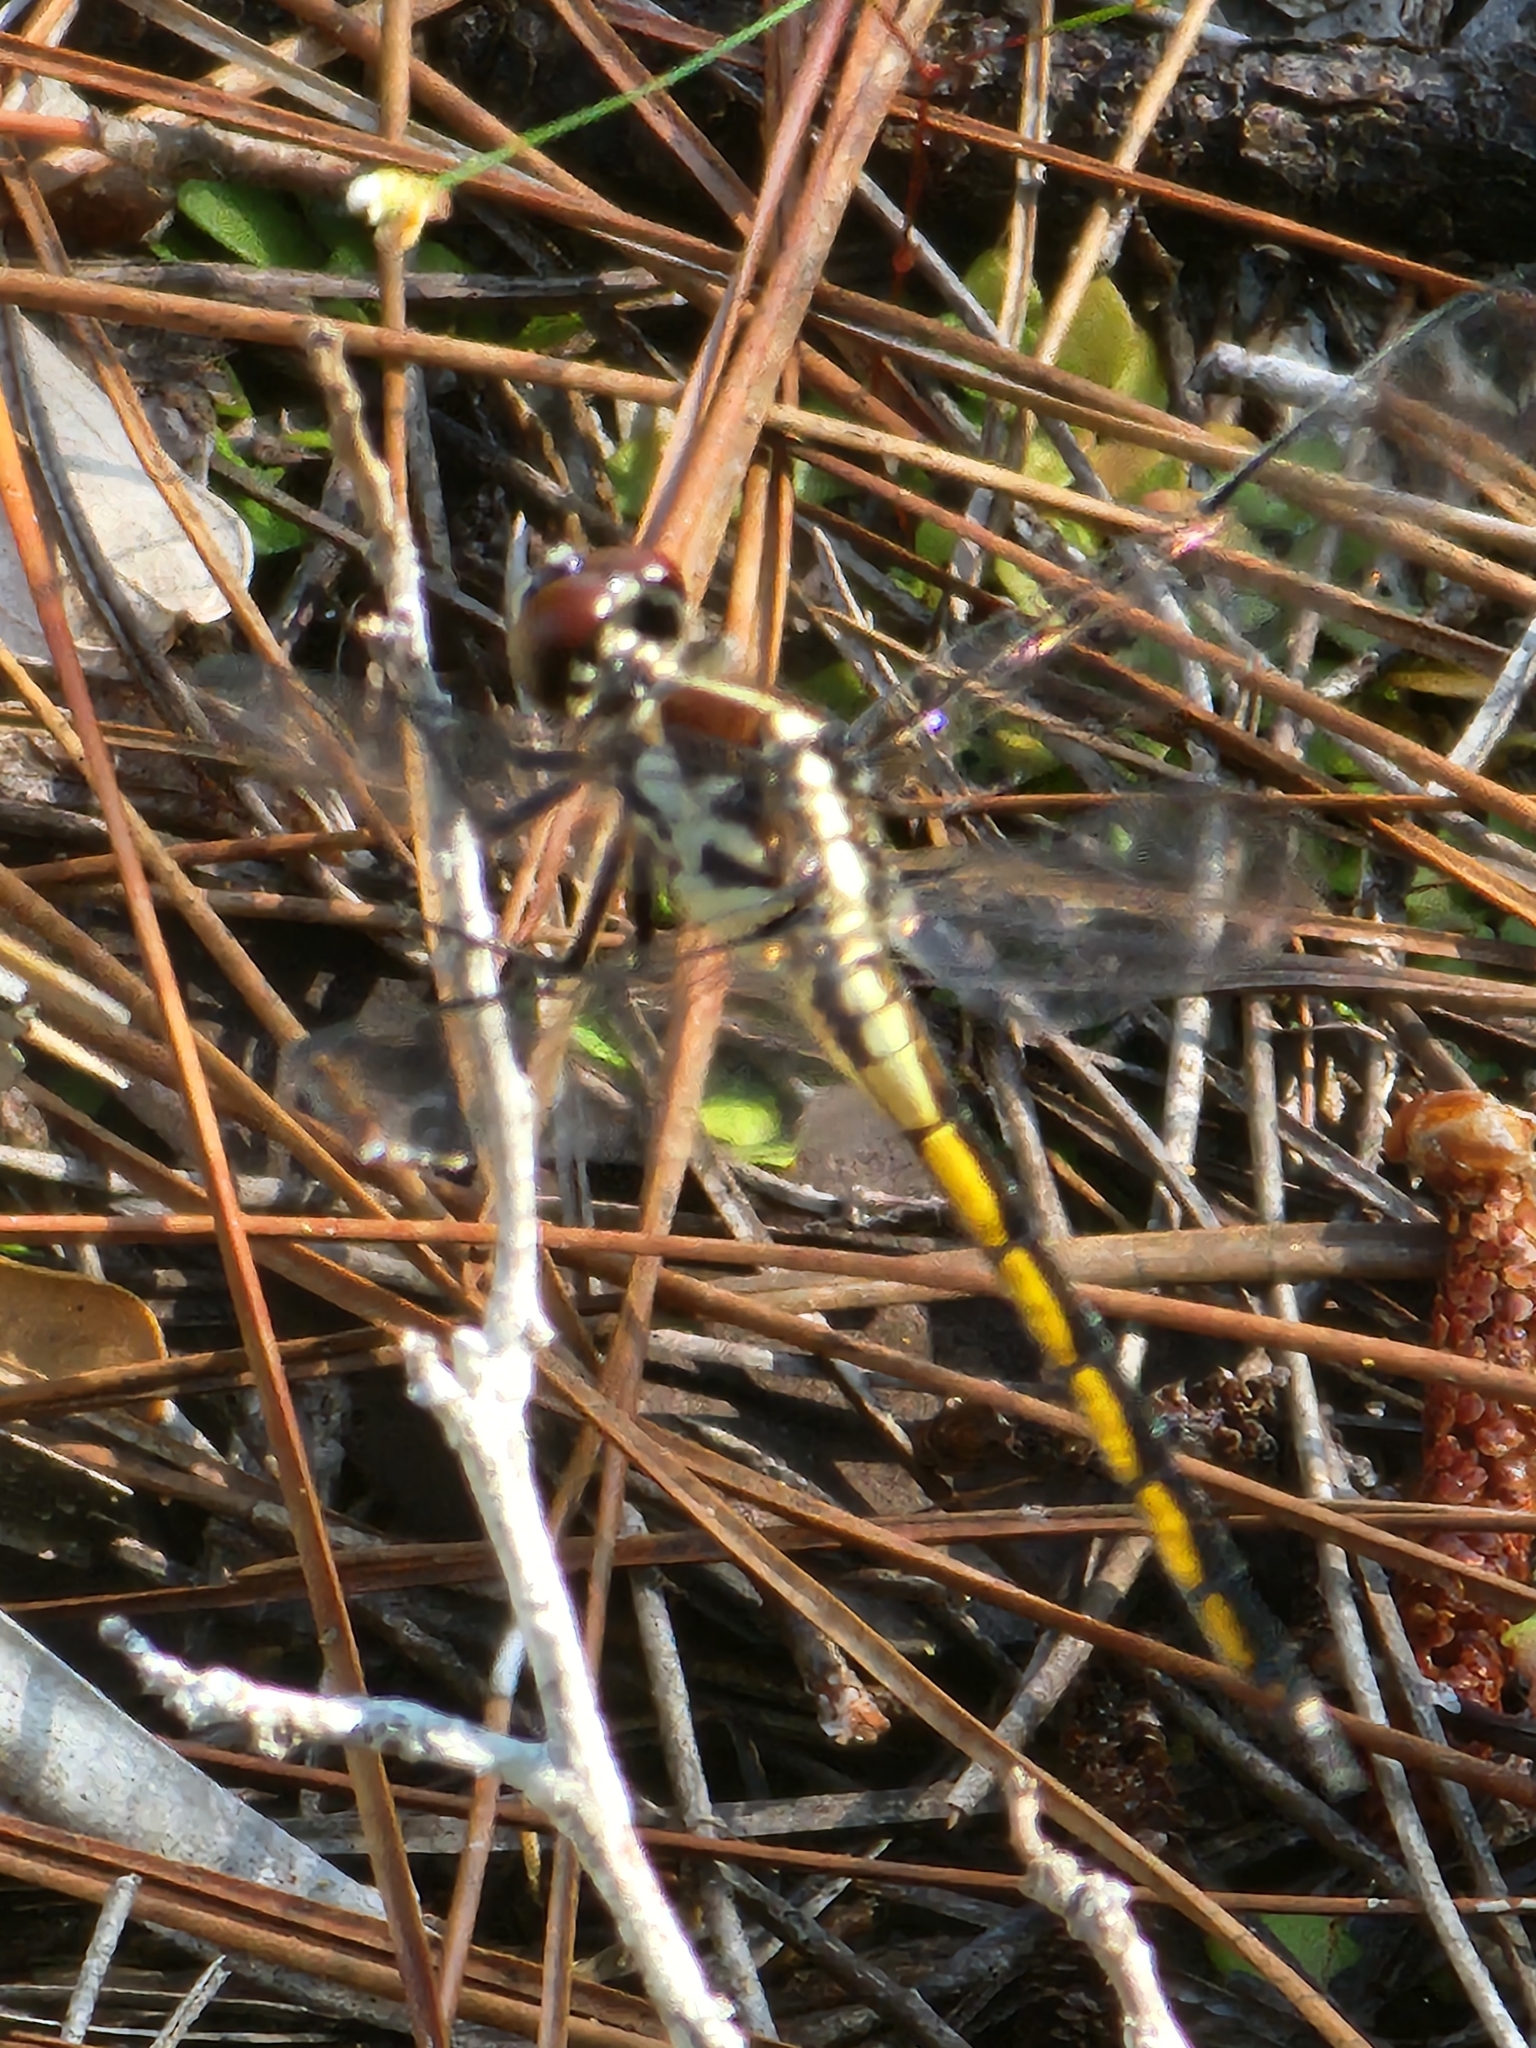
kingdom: Animalia
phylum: Arthropoda
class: Insecta
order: Odonata
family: Libellulidae
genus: Libellula
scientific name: Libellula axilena
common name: Bar-winged skimmer
